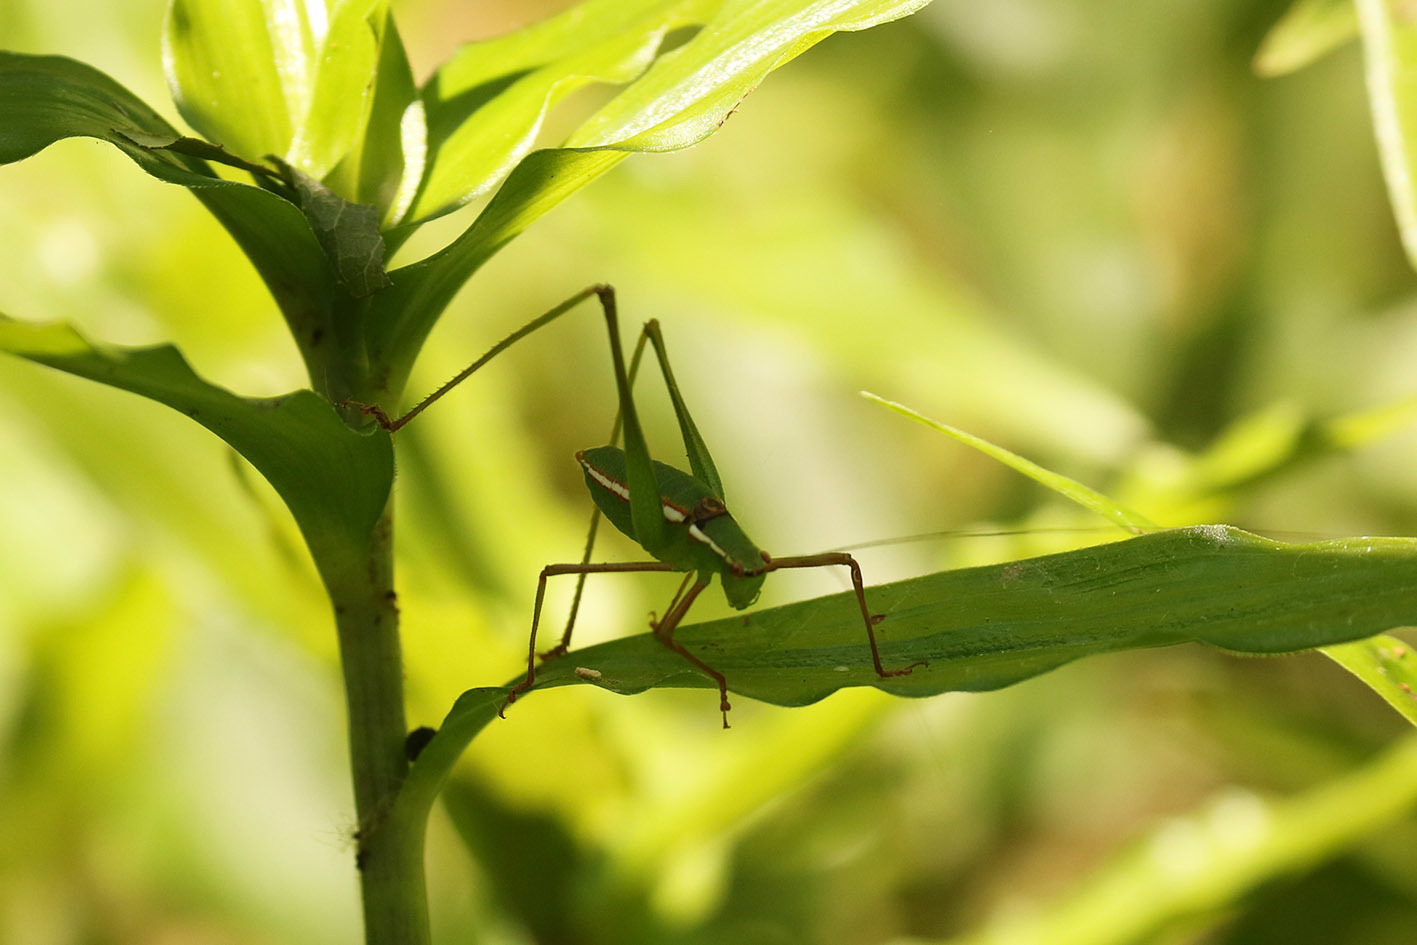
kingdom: Animalia
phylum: Arthropoda
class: Insecta
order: Orthoptera
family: Tettigoniidae
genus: Xenicola
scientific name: Xenicola dohrni
